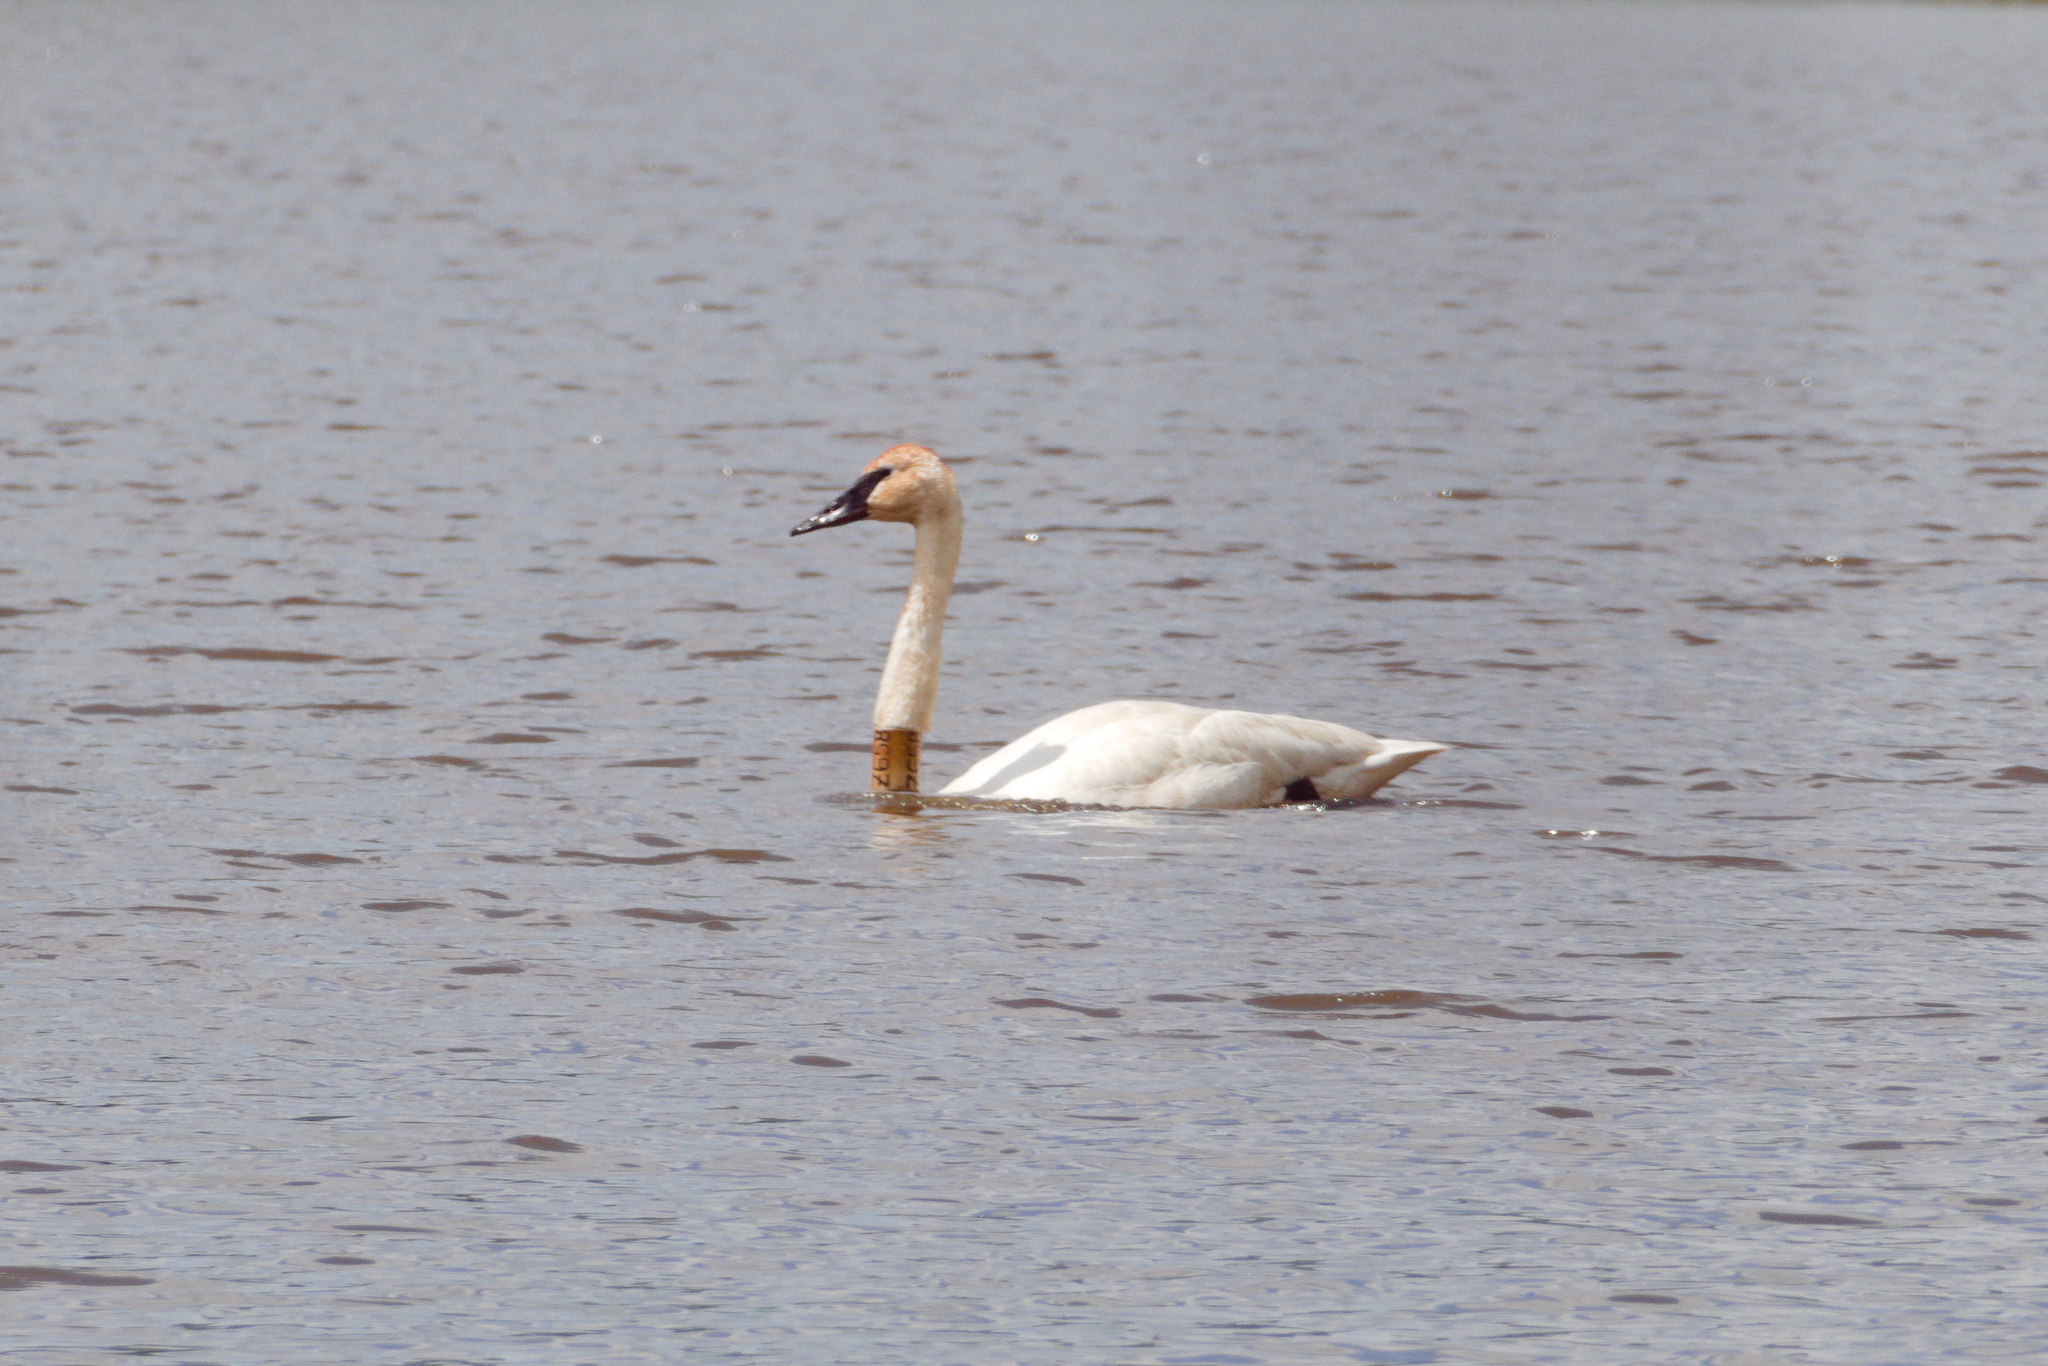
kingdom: Animalia
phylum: Chordata
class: Aves
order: Anseriformes
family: Anatidae
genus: Cygnus
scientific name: Cygnus buccinator
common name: Trumpeter swan
